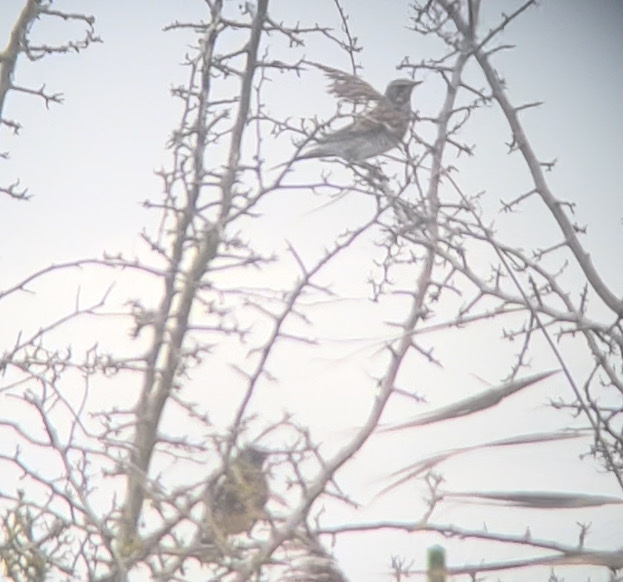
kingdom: Animalia
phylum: Chordata
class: Aves
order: Passeriformes
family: Turdidae
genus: Turdus
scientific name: Turdus pilaris
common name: Fieldfare
